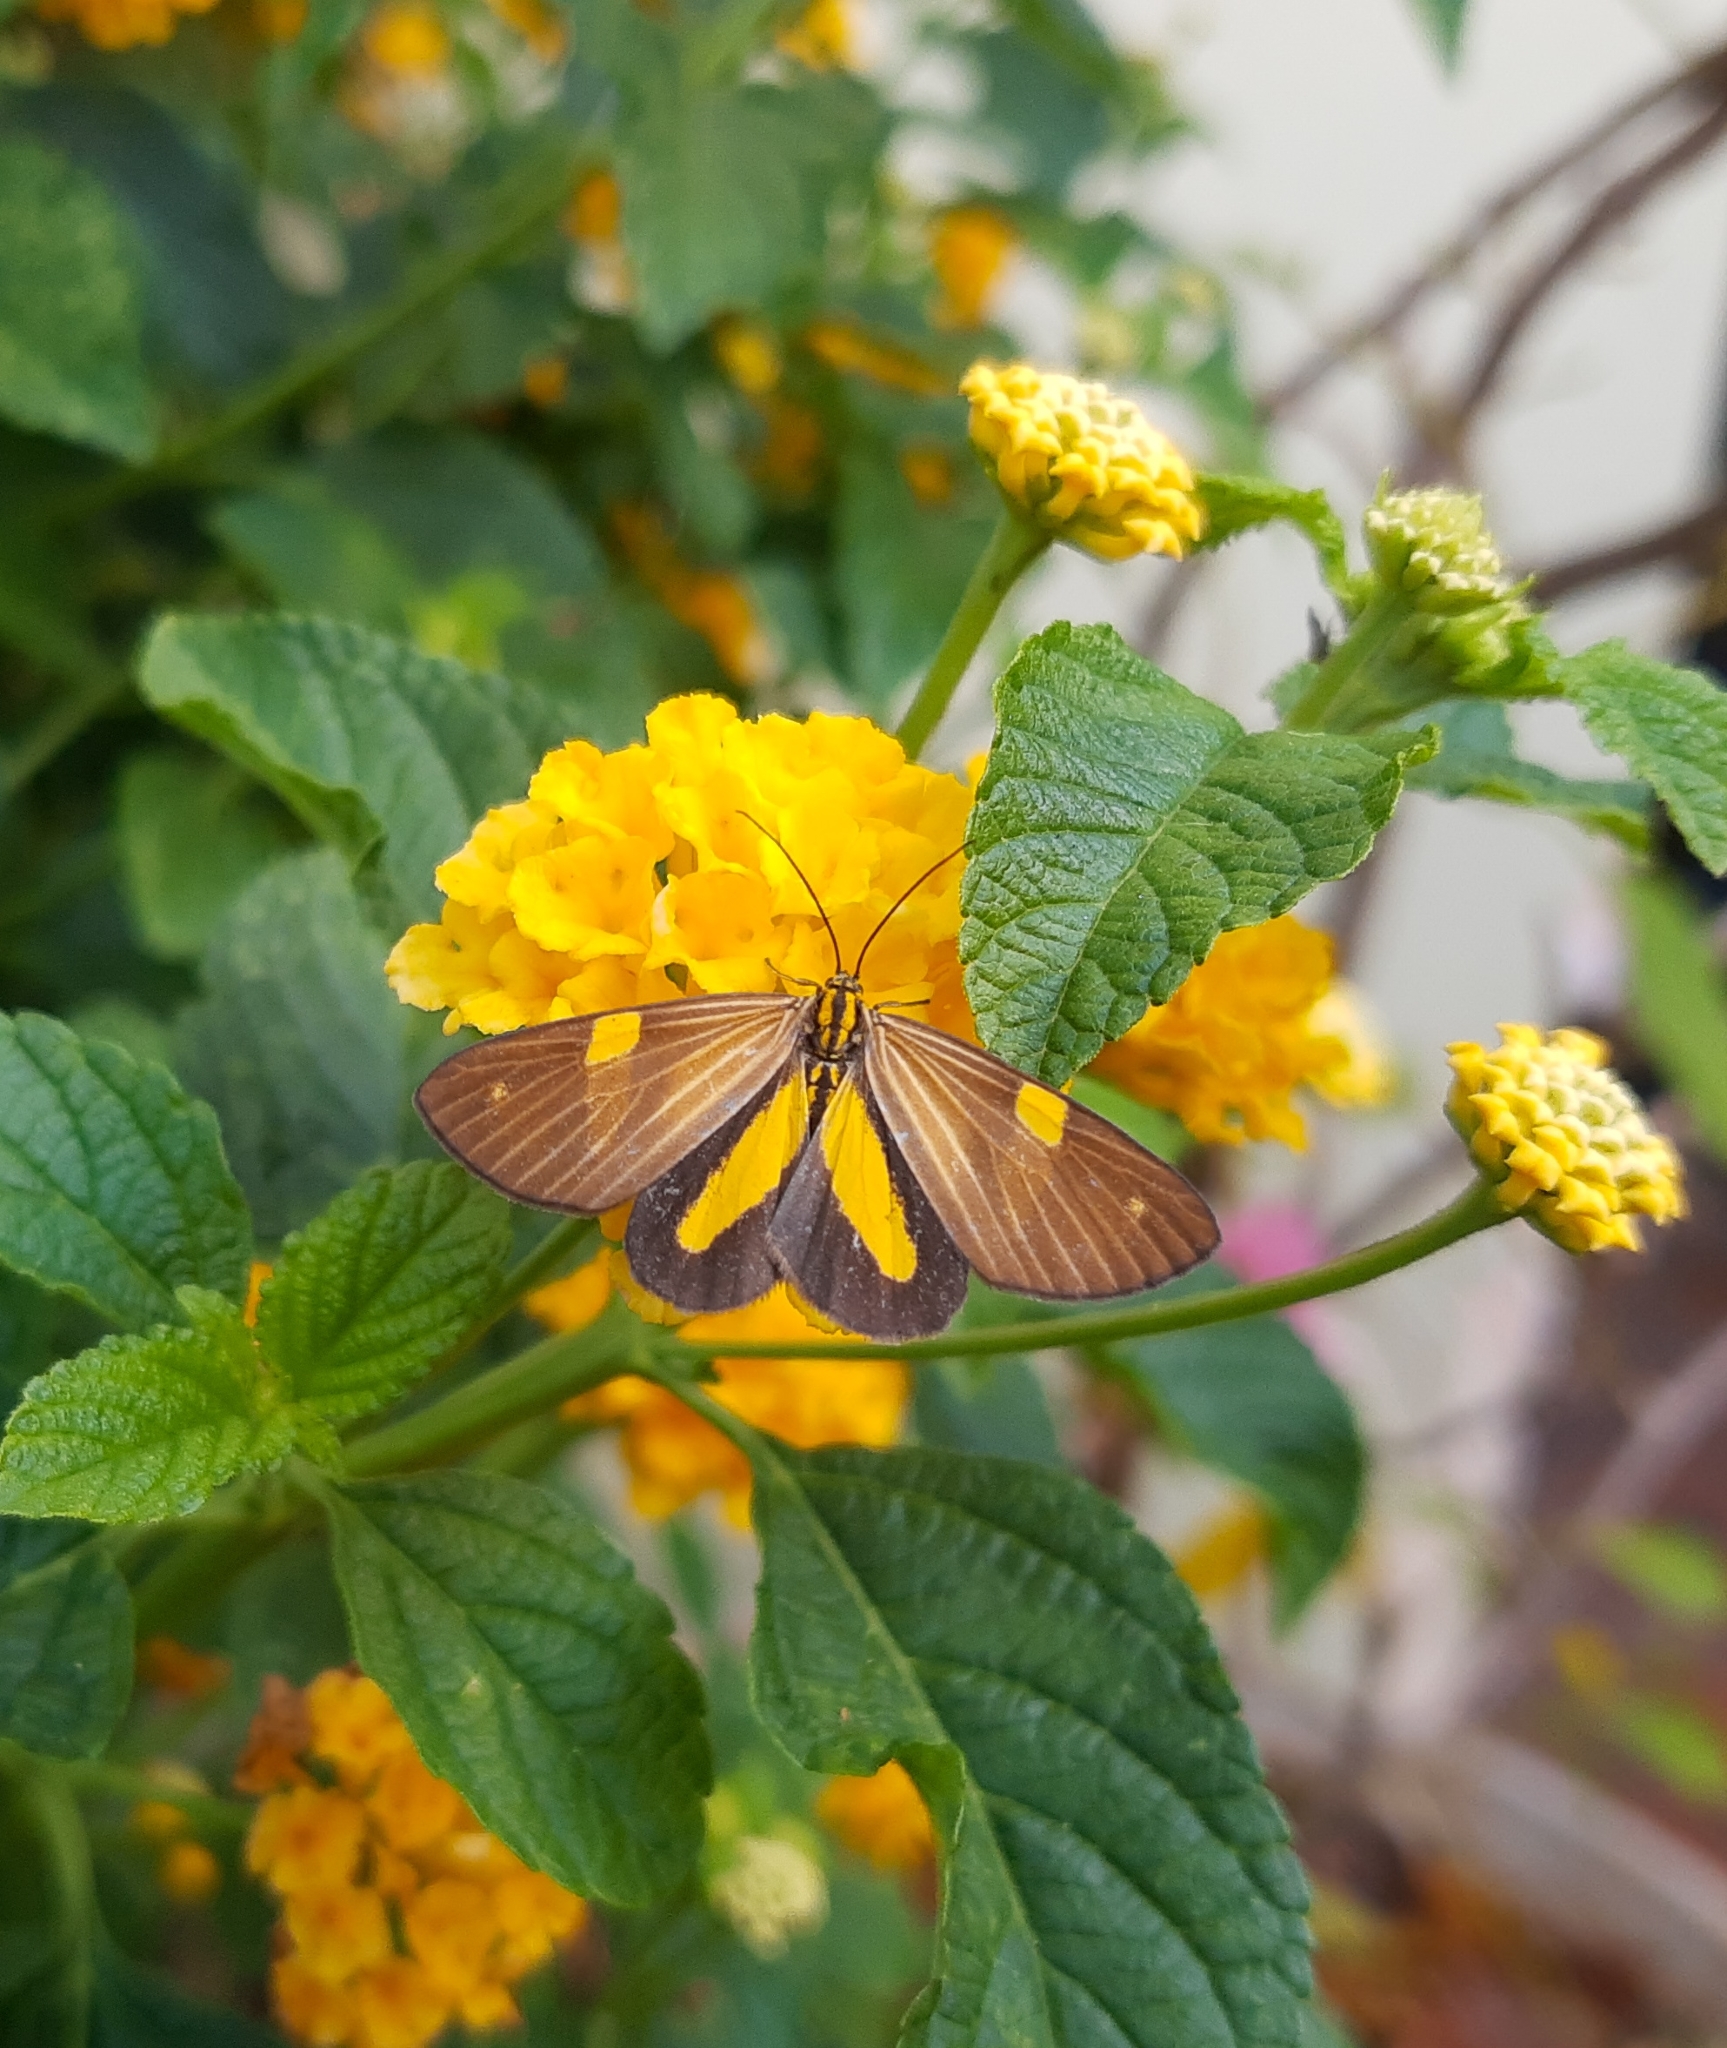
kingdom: Animalia
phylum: Arthropoda
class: Insecta
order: Lepidoptera
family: Notodontidae
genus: Phaeochlaena
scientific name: Phaeochlaena
